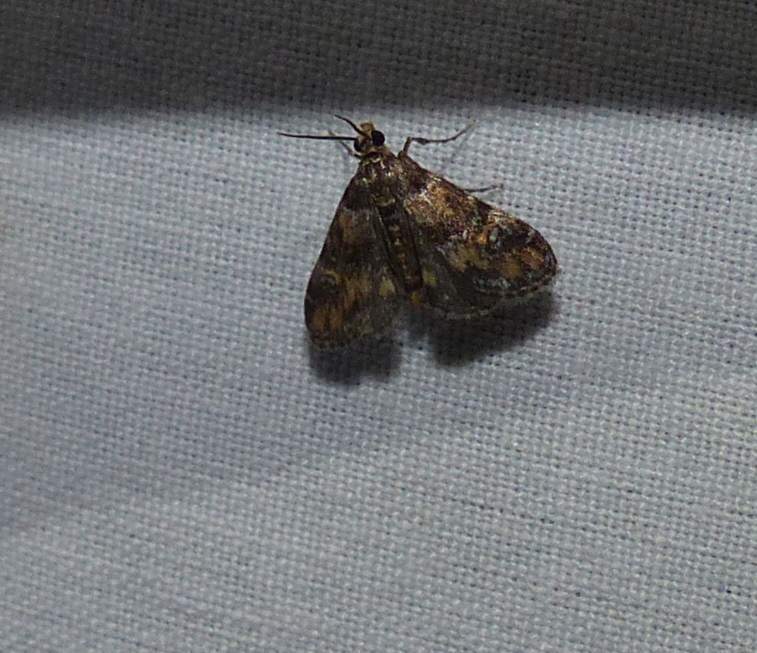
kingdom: Animalia
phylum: Arthropoda
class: Insecta
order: Lepidoptera
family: Crambidae
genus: Elophila
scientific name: Elophila obliteralis
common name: Waterlily leafcutter moth
